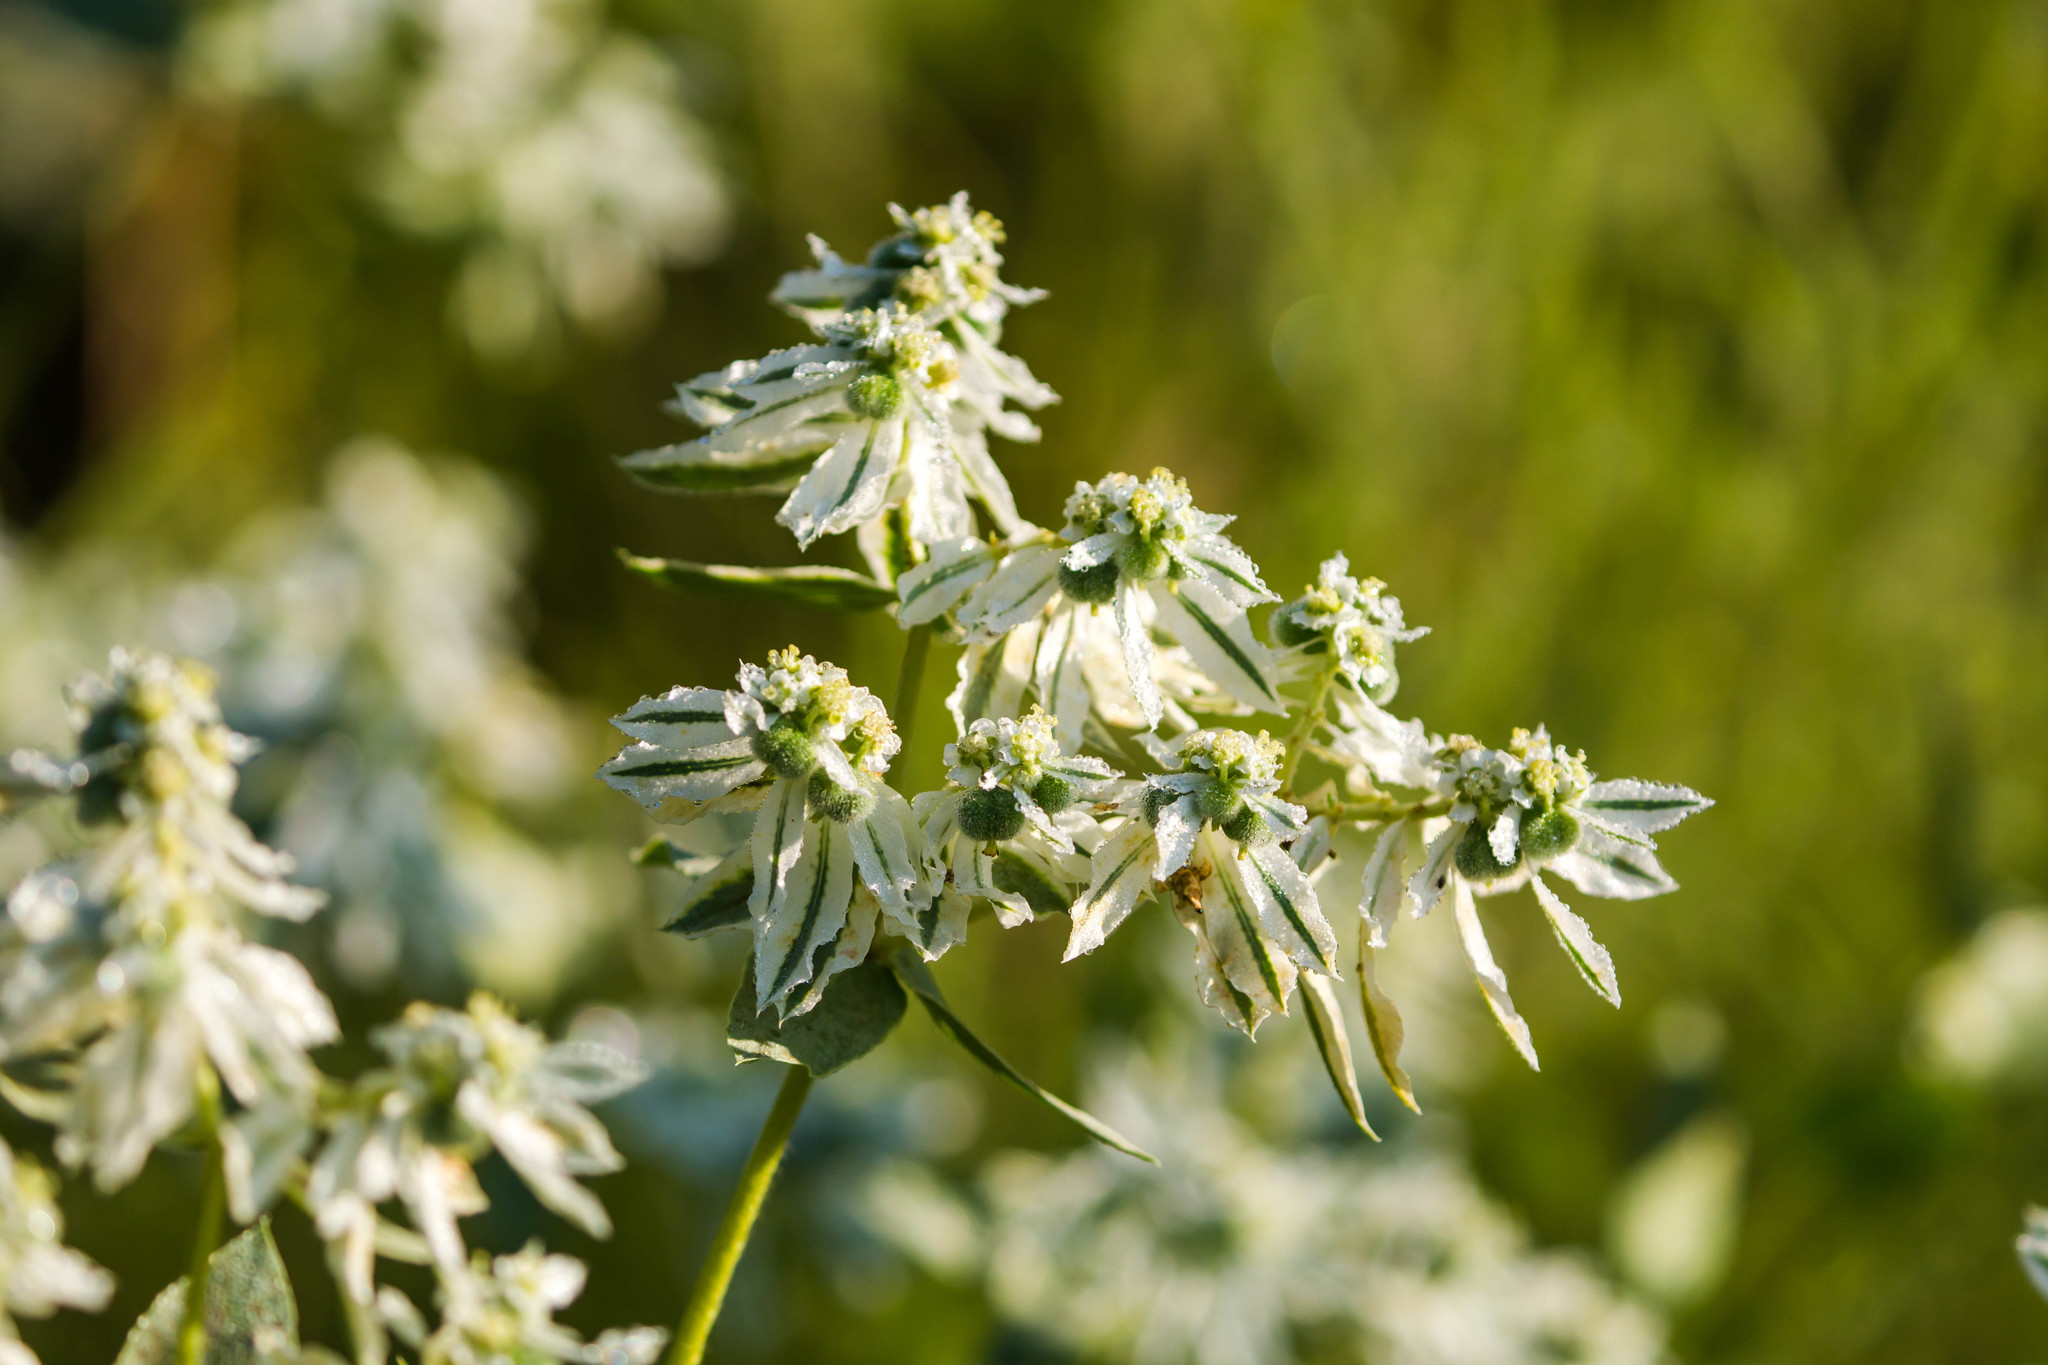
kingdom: Plantae
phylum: Tracheophyta
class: Magnoliopsida
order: Malpighiales
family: Euphorbiaceae
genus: Euphorbia
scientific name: Euphorbia marginata
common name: Ghostweed
